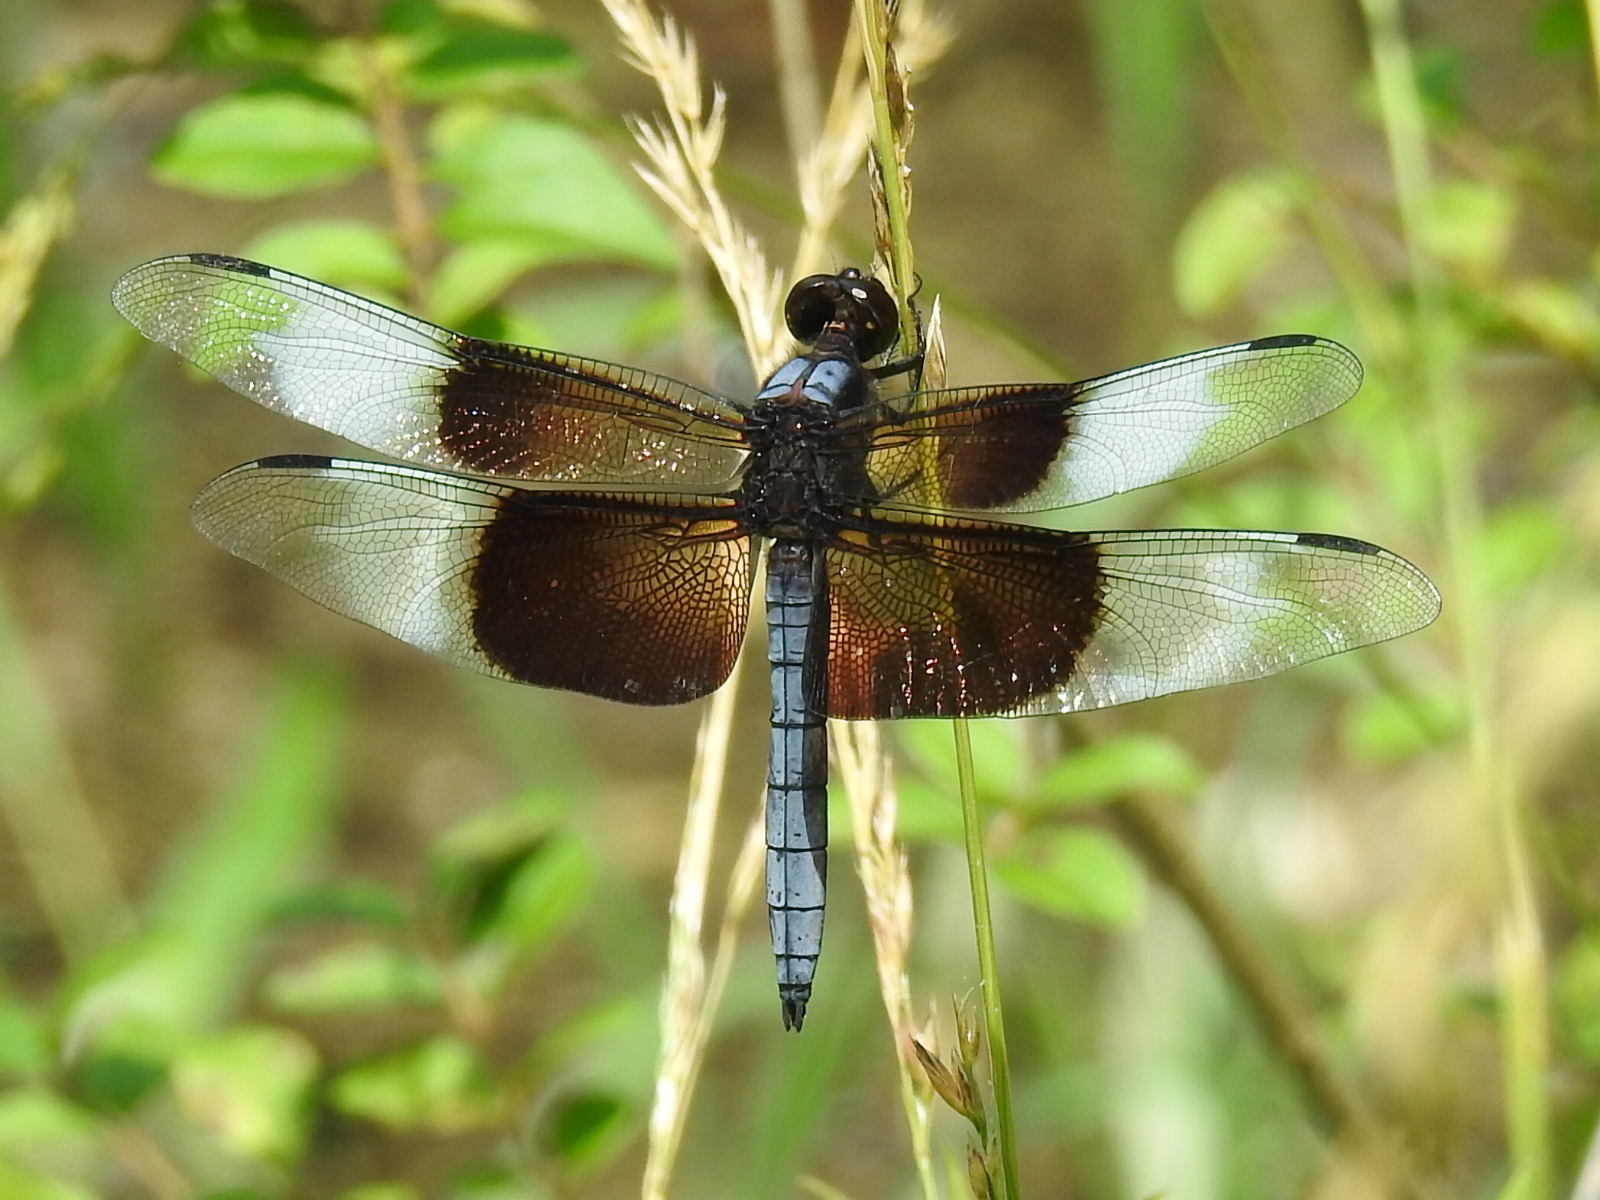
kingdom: Animalia
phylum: Arthropoda
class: Insecta
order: Odonata
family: Libellulidae
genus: Libellula
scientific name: Libellula luctuosa
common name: Widow skimmer
